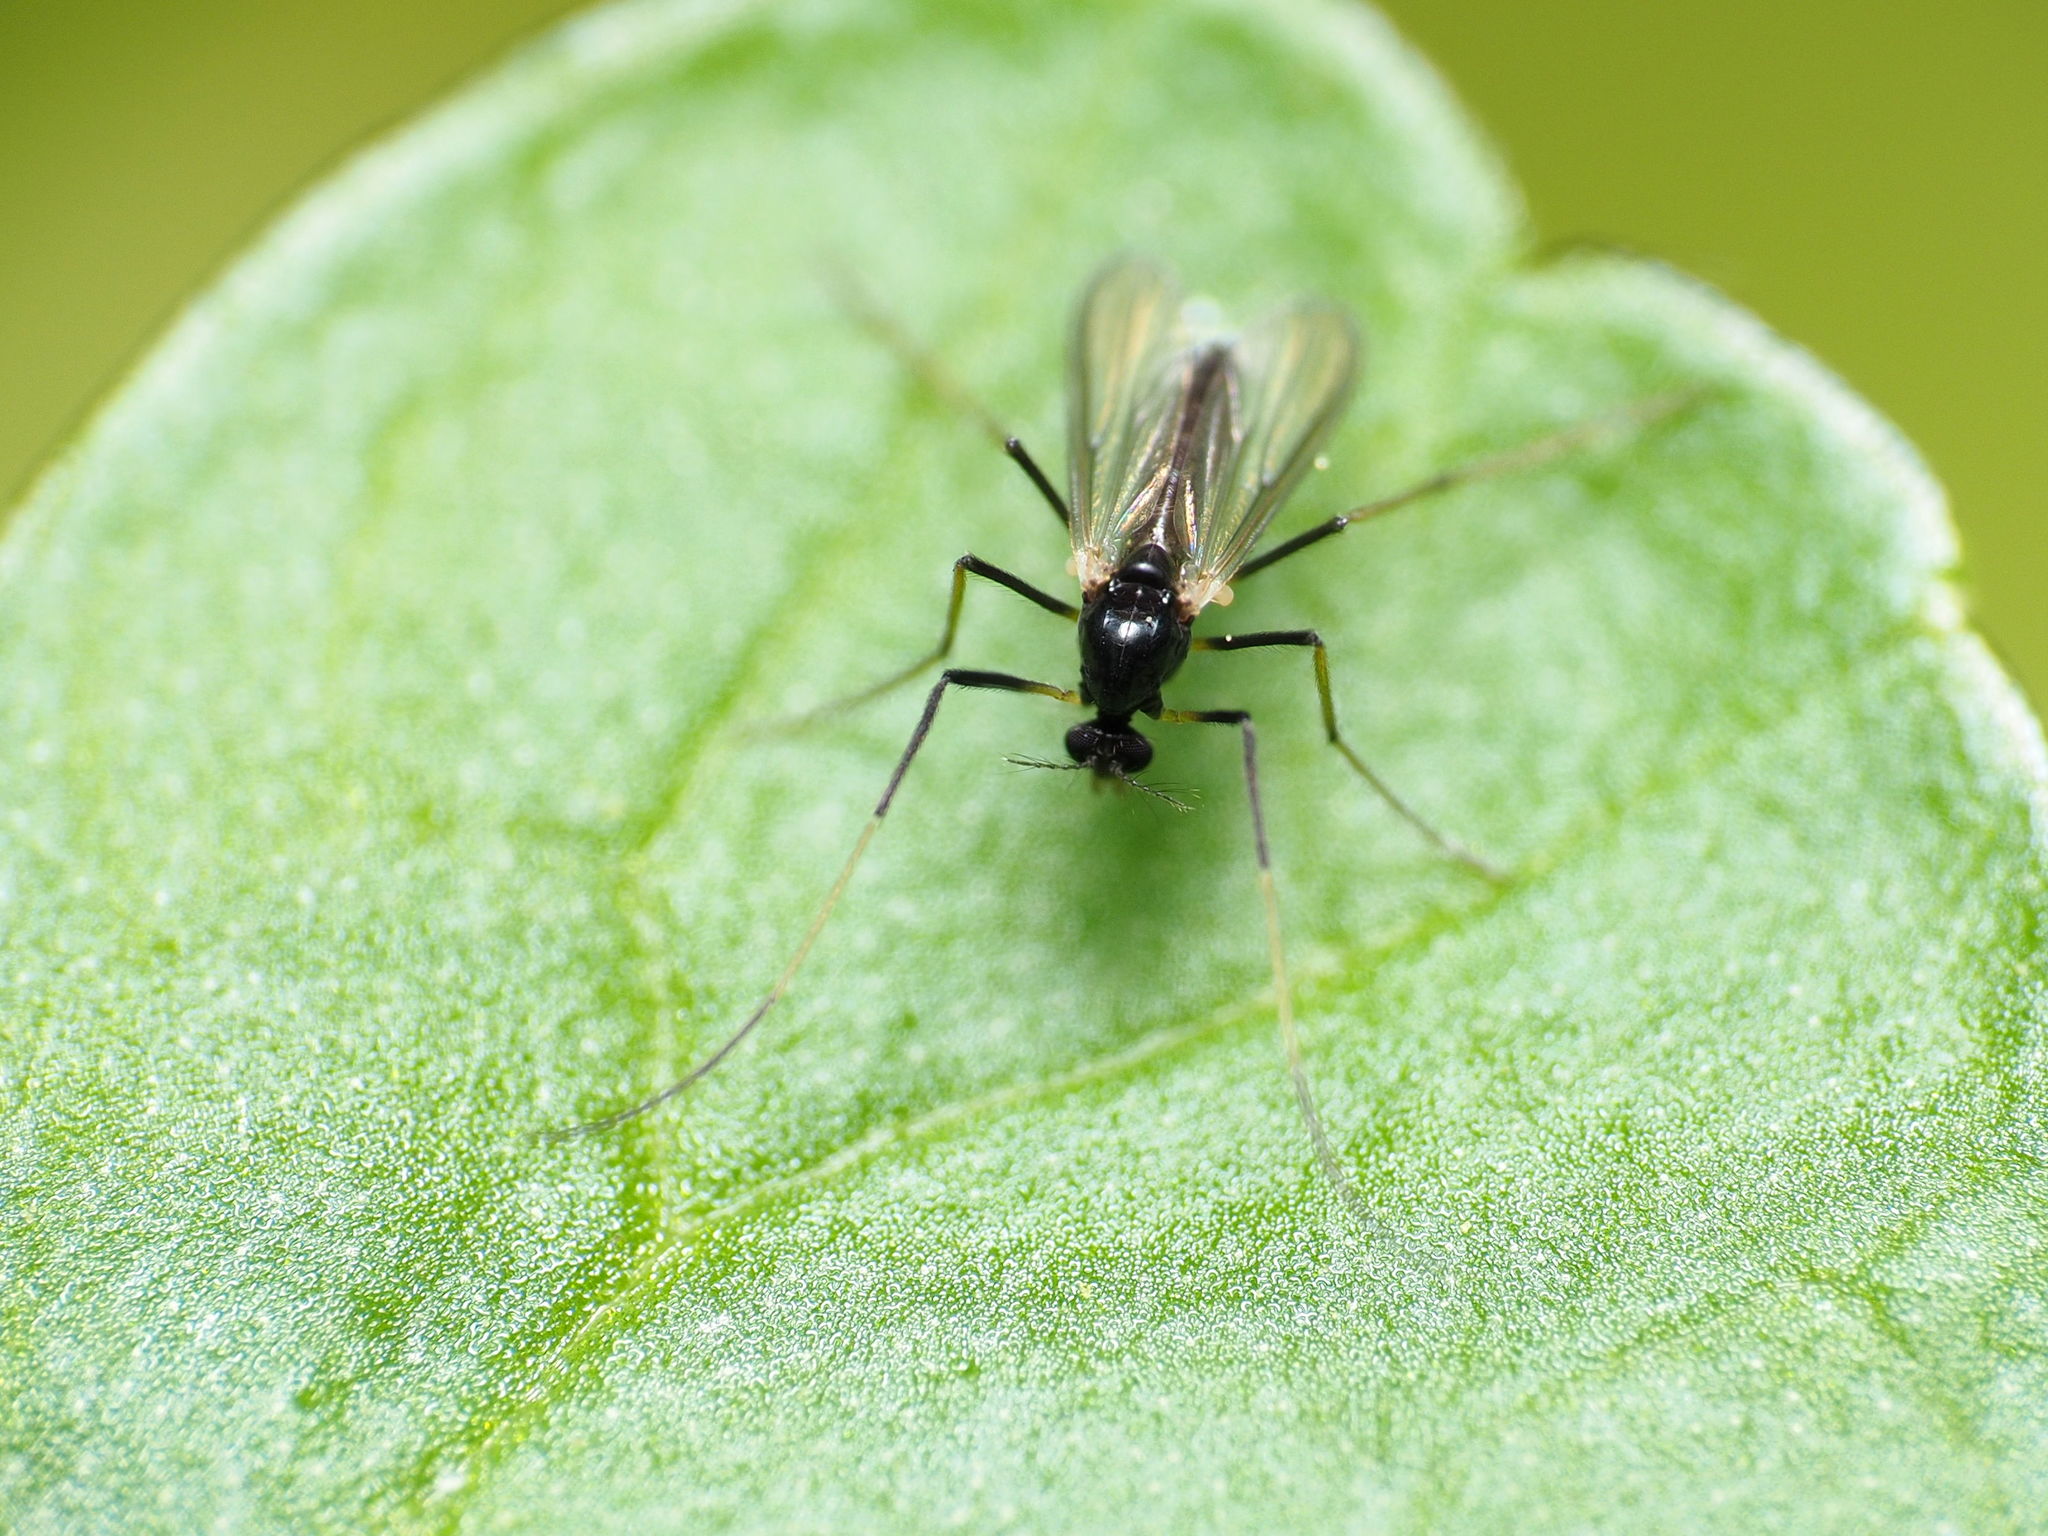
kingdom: Animalia
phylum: Arthropoda
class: Insecta
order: Diptera
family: Chironomidae
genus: Paratendipes
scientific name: Paratendipes albimanus
